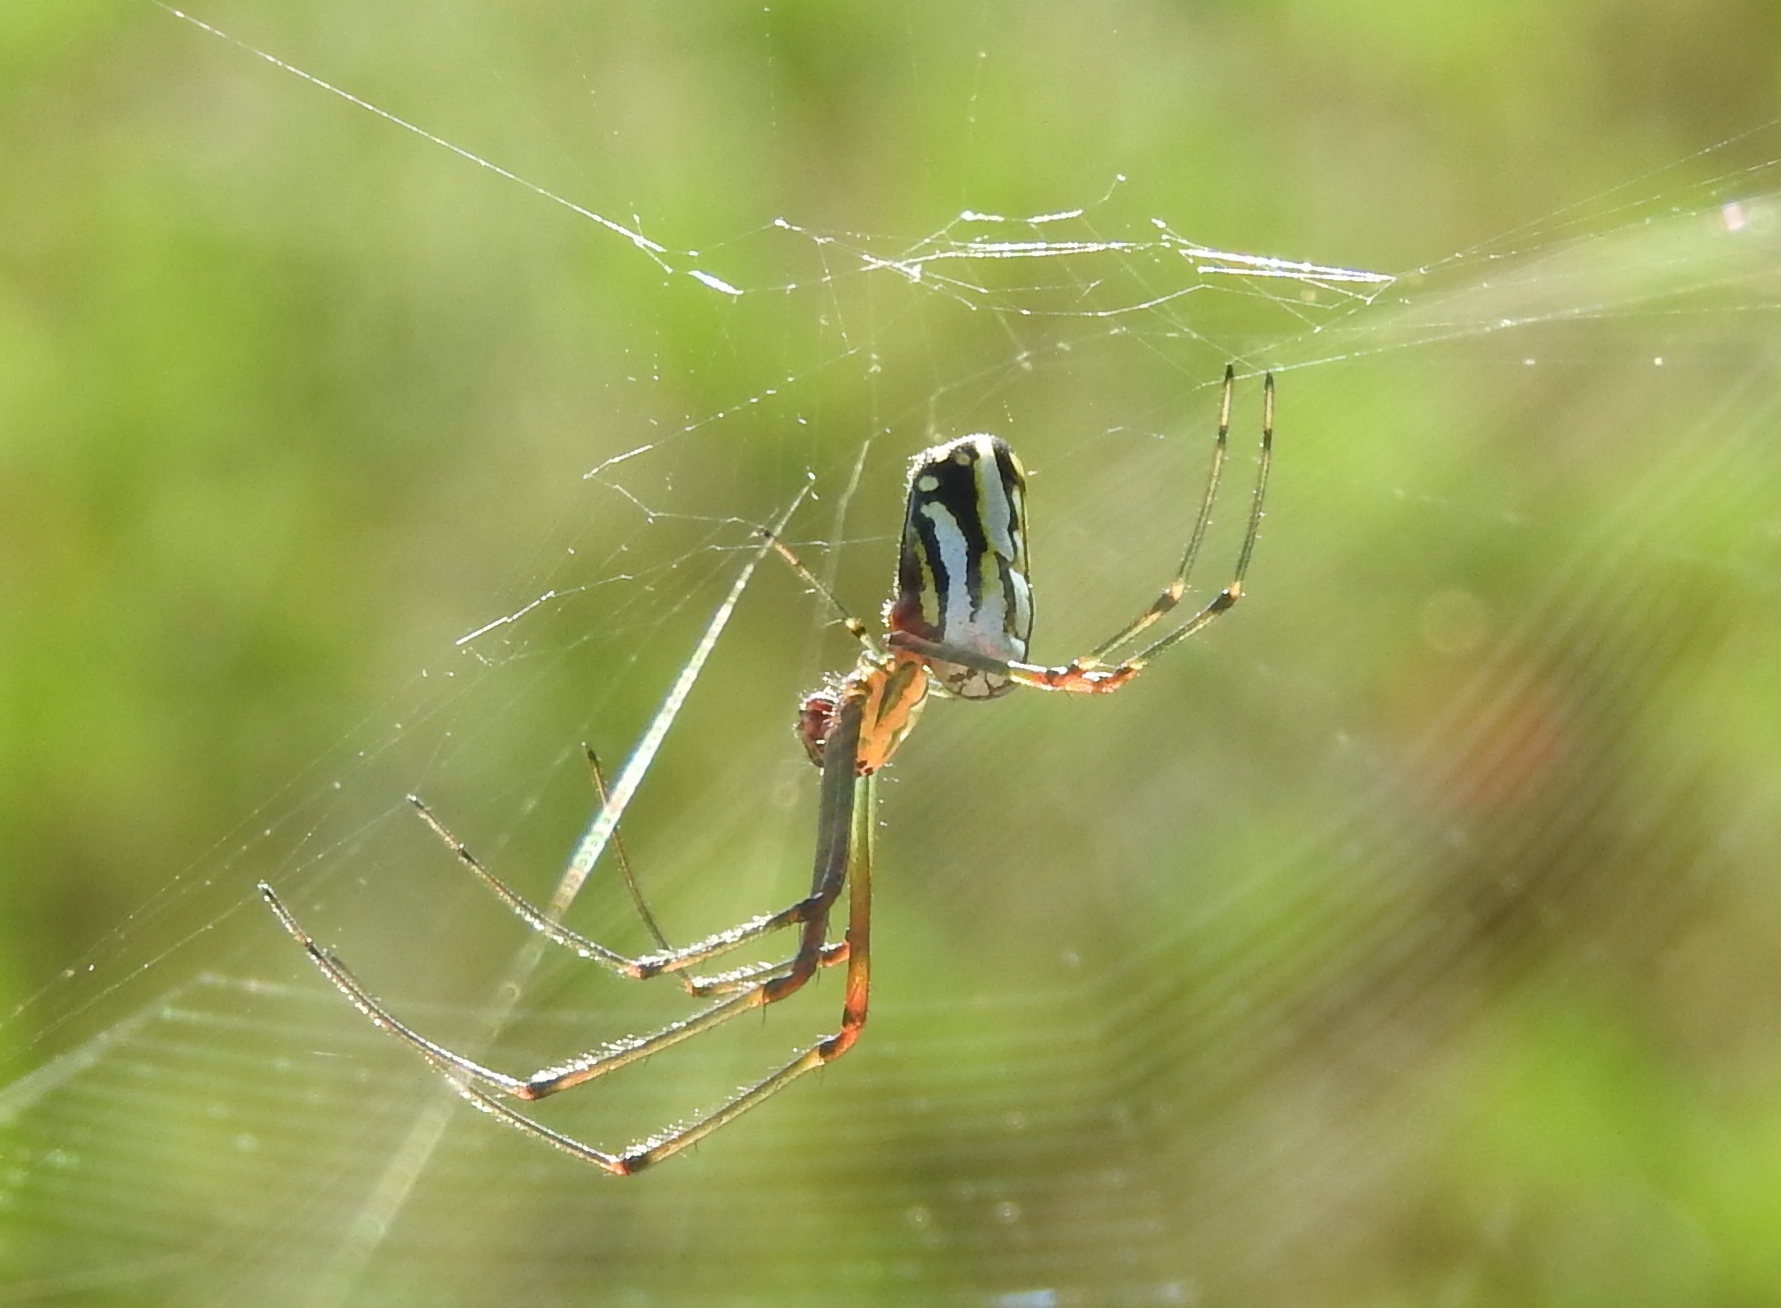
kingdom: Animalia
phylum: Arthropoda
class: Arachnida
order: Araneae
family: Tetragnathidae
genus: Leucauge
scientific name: Leucauge
